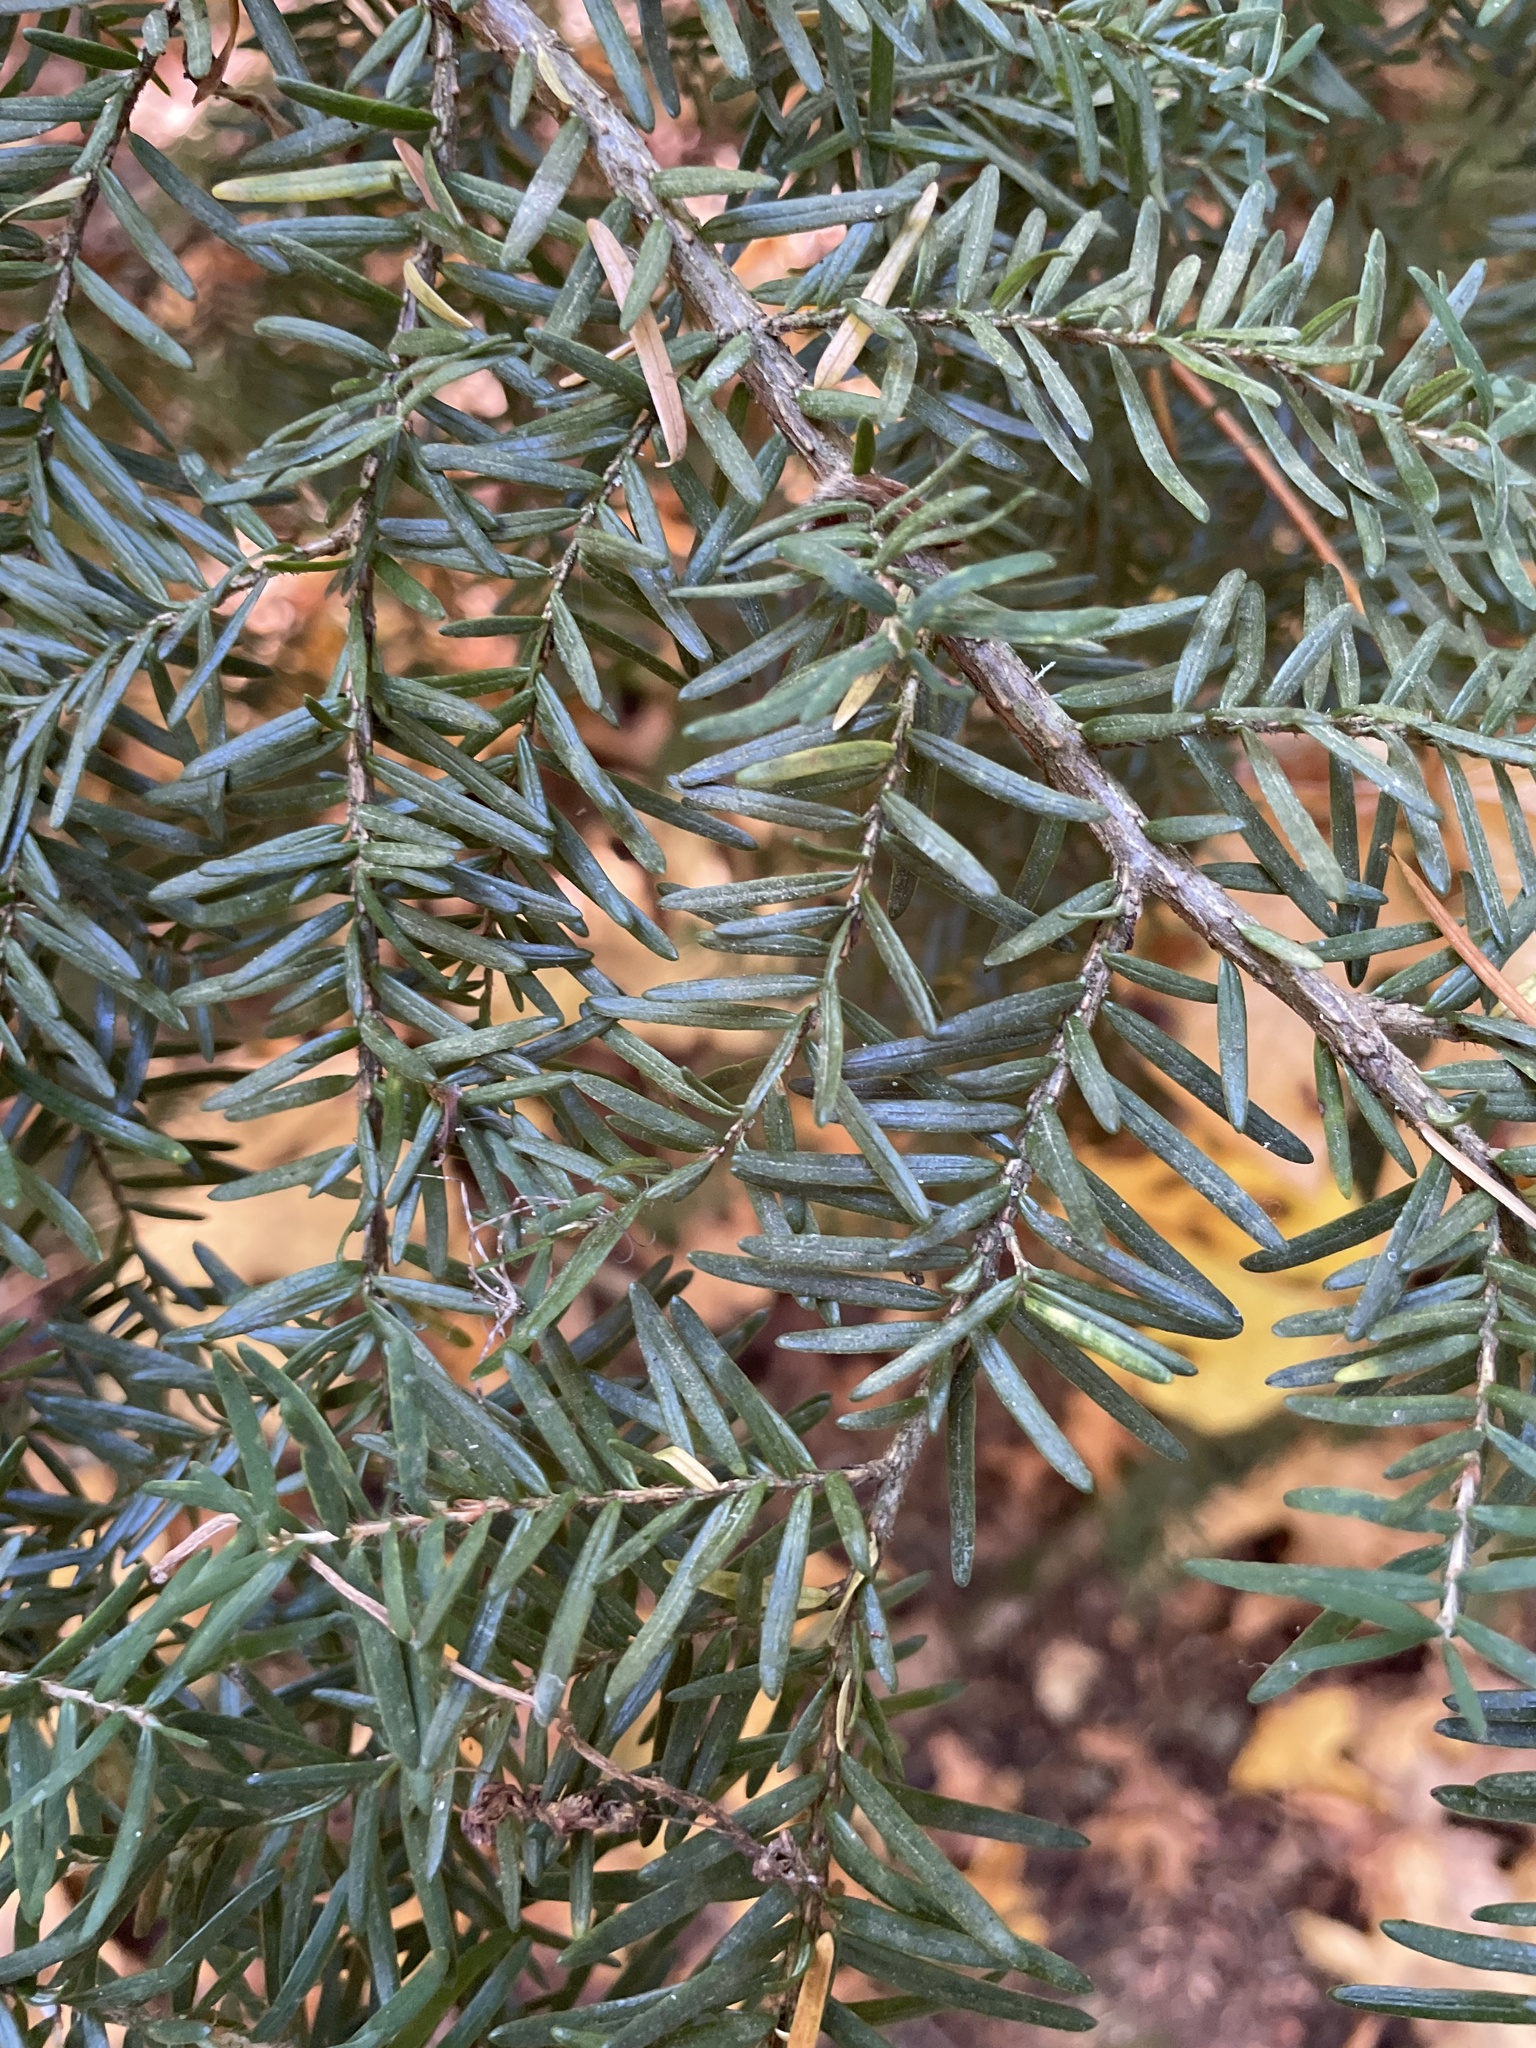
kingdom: Plantae
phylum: Tracheophyta
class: Pinopsida
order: Pinales
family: Pinaceae
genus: Tsuga
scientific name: Tsuga heterophylla
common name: Western hemlock
